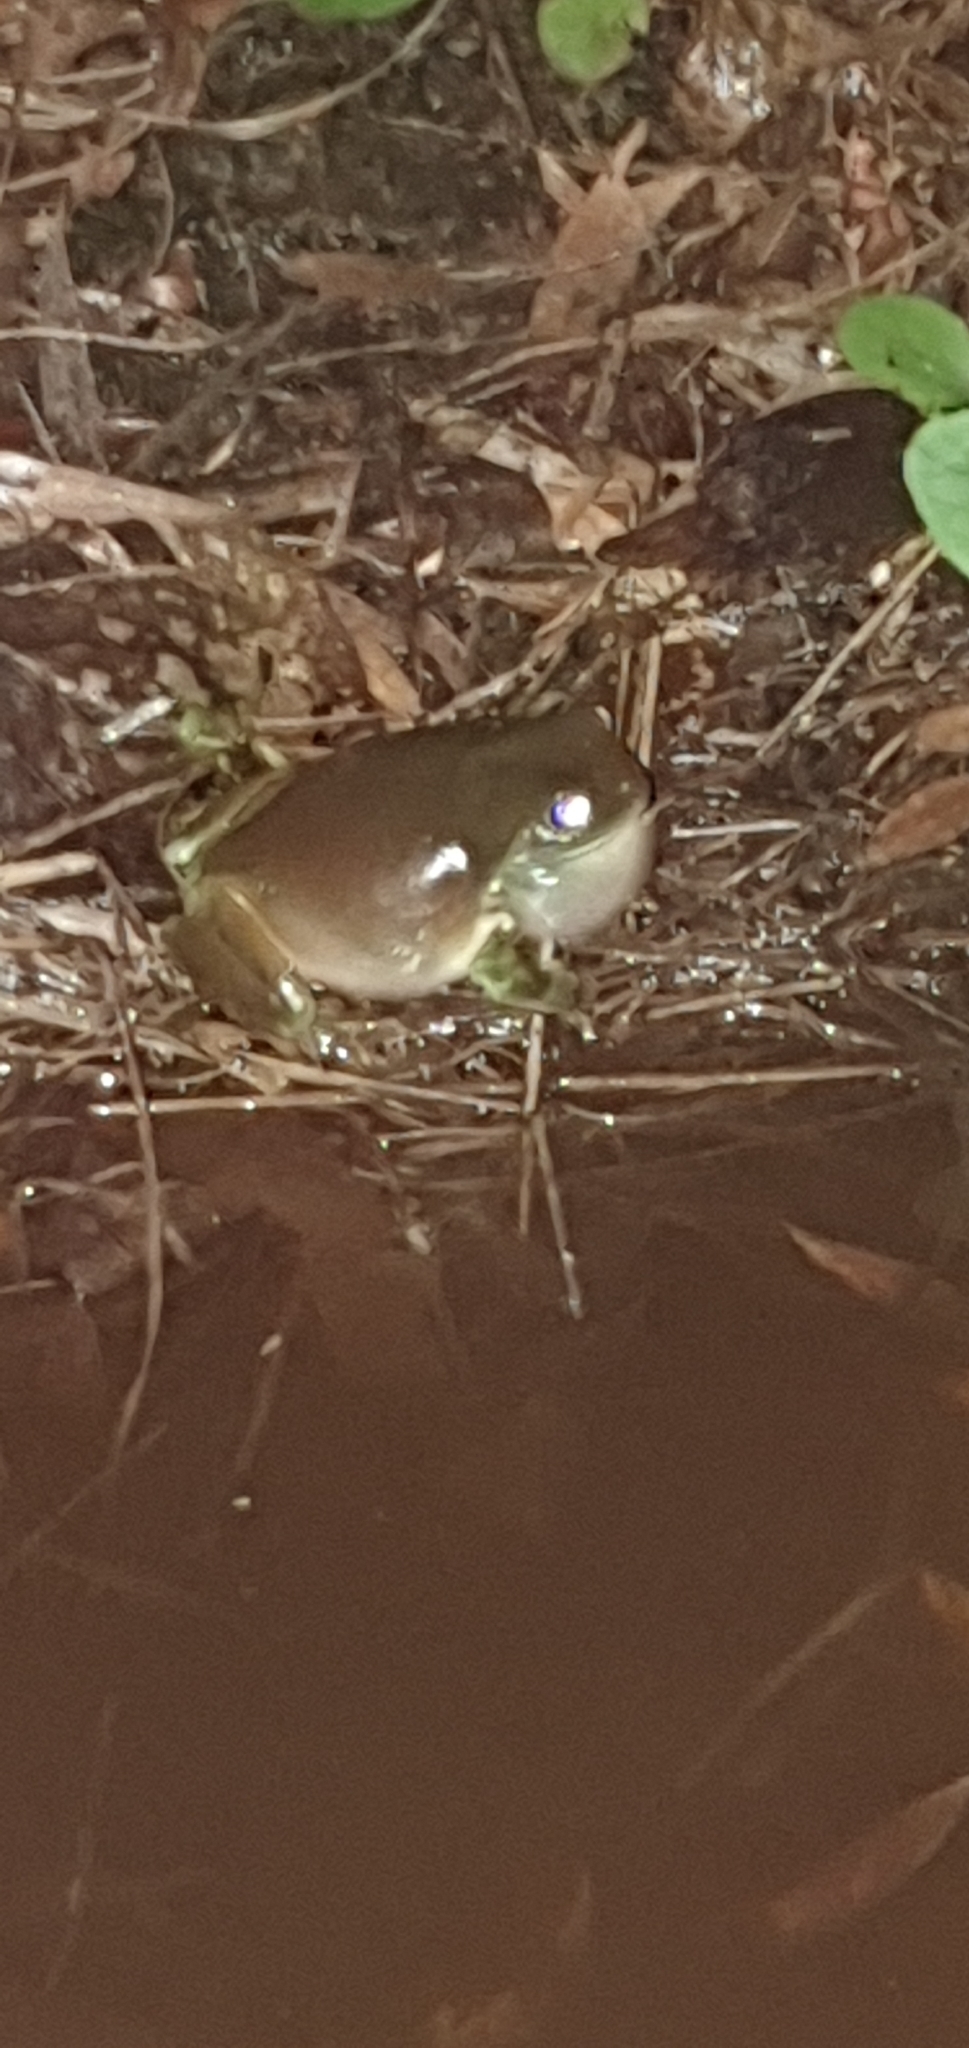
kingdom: Animalia
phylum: Chordata
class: Amphibia
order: Anura
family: Pelodryadidae
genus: Ranoidea
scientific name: Ranoidea caerulea
